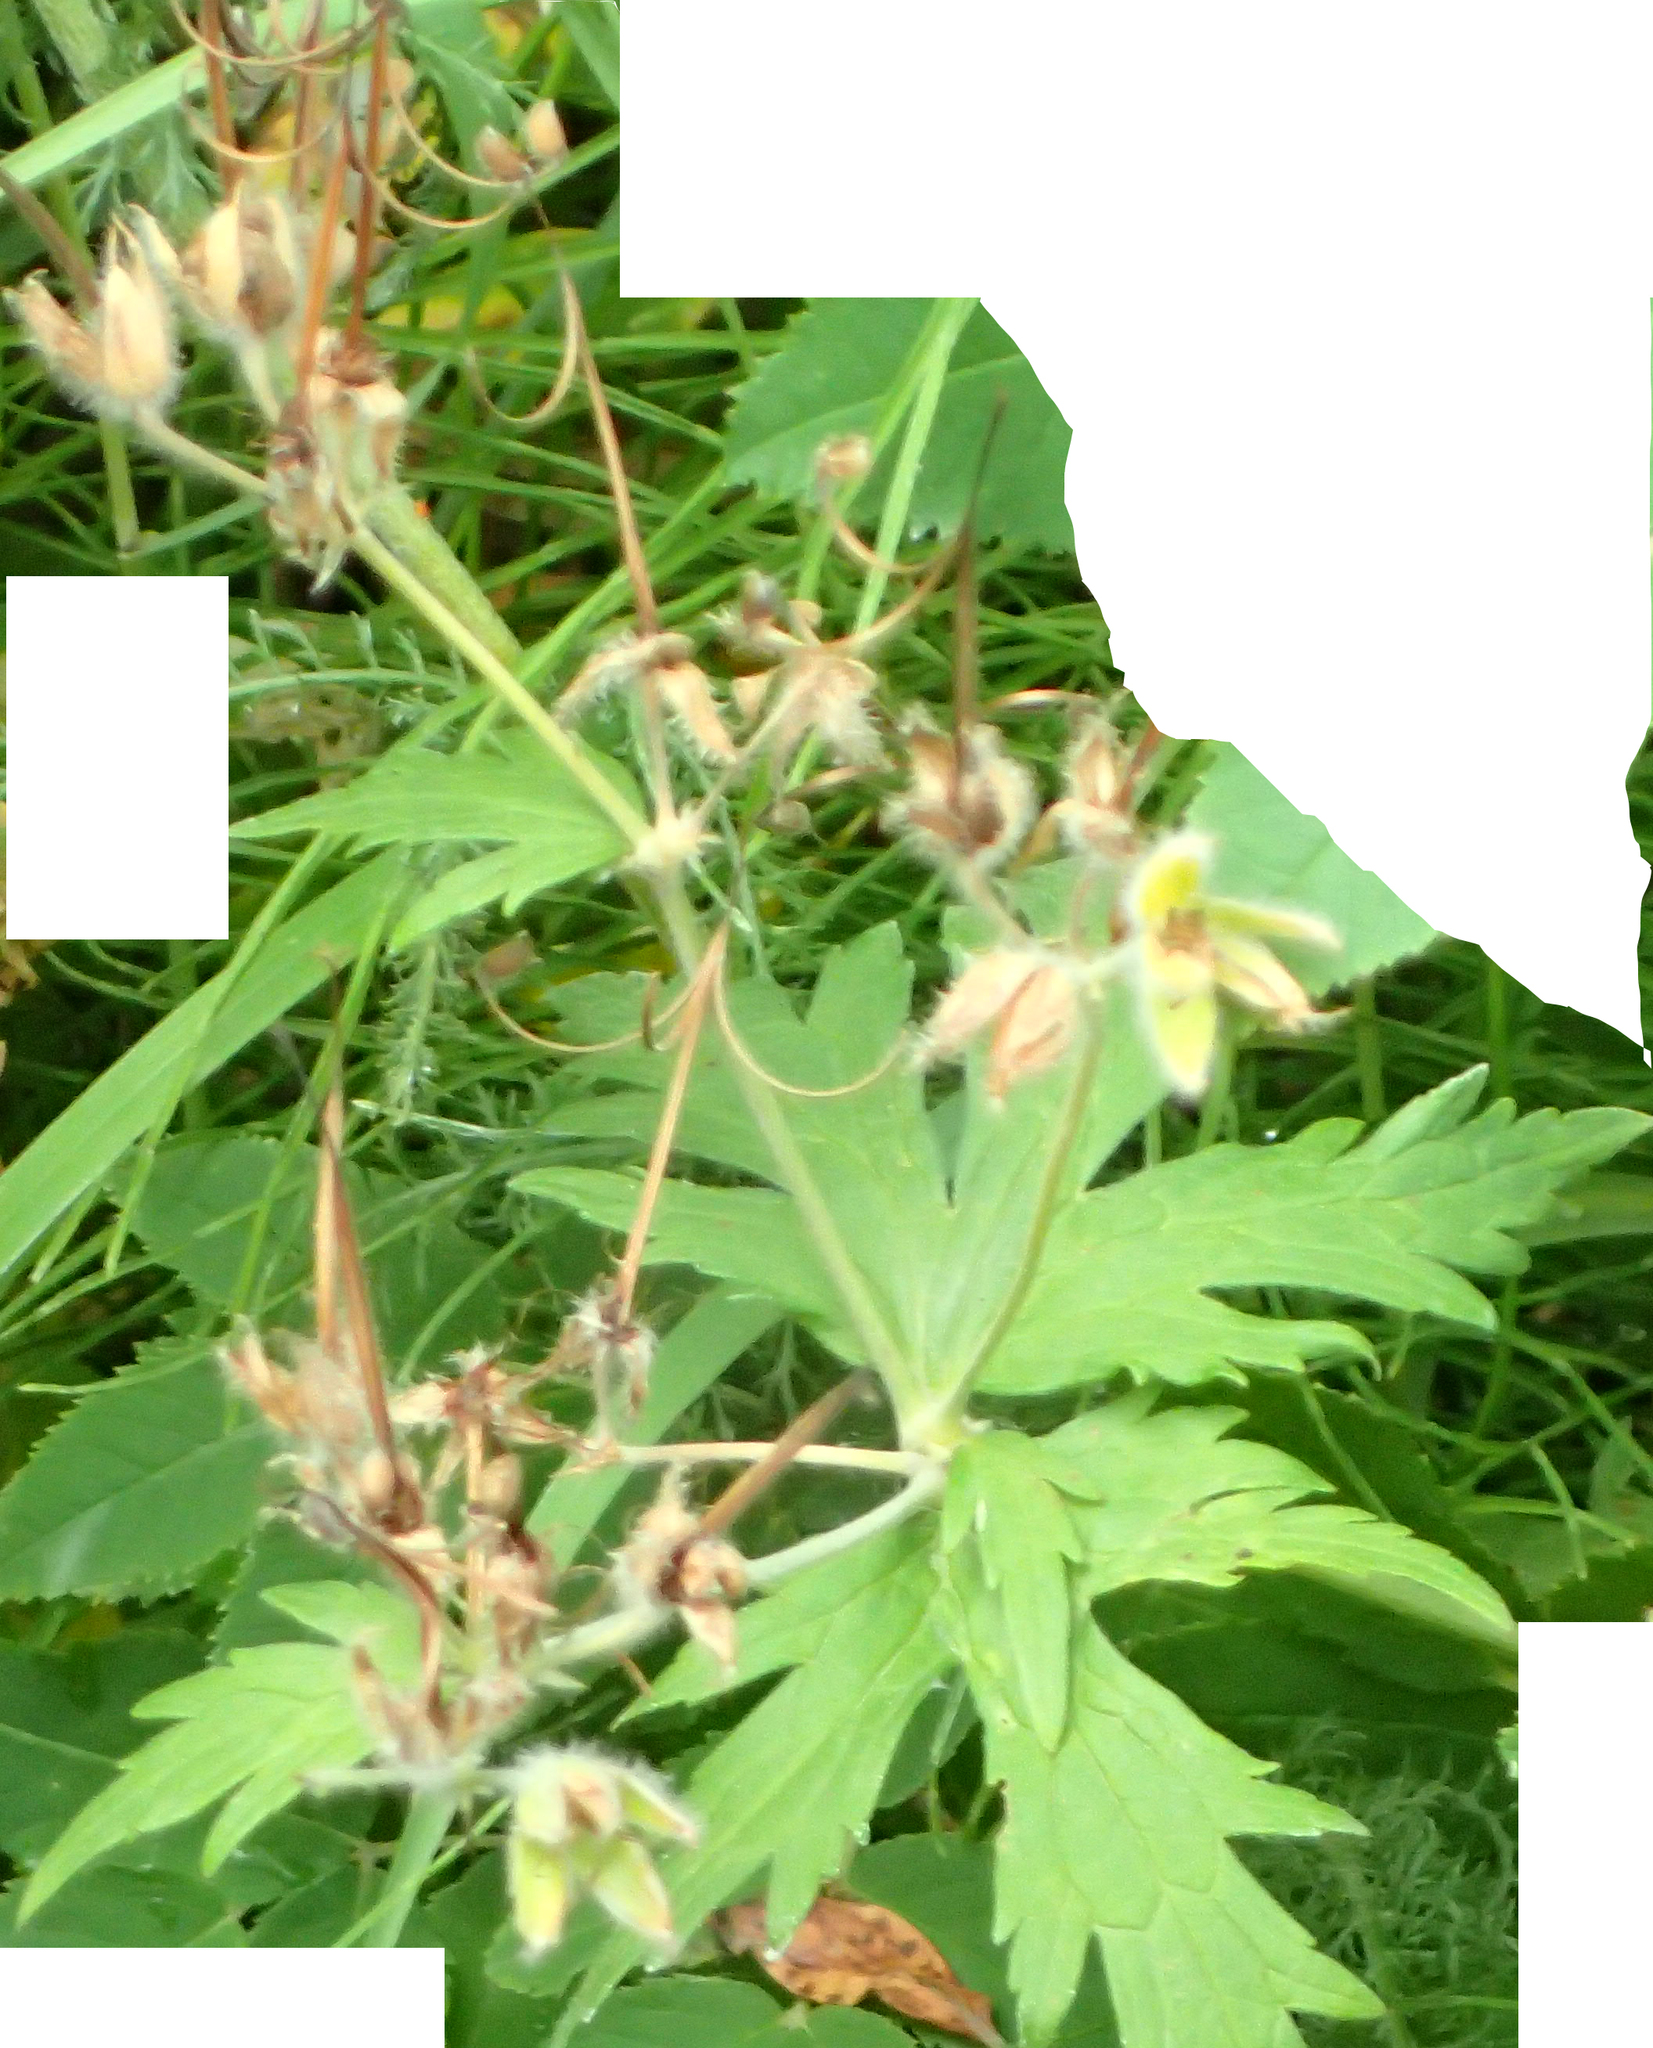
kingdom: Plantae
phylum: Tracheophyta
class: Magnoliopsida
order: Geraniales
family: Geraniaceae
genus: Geranium
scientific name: Geranium erianthum
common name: Northern crane's-bill
